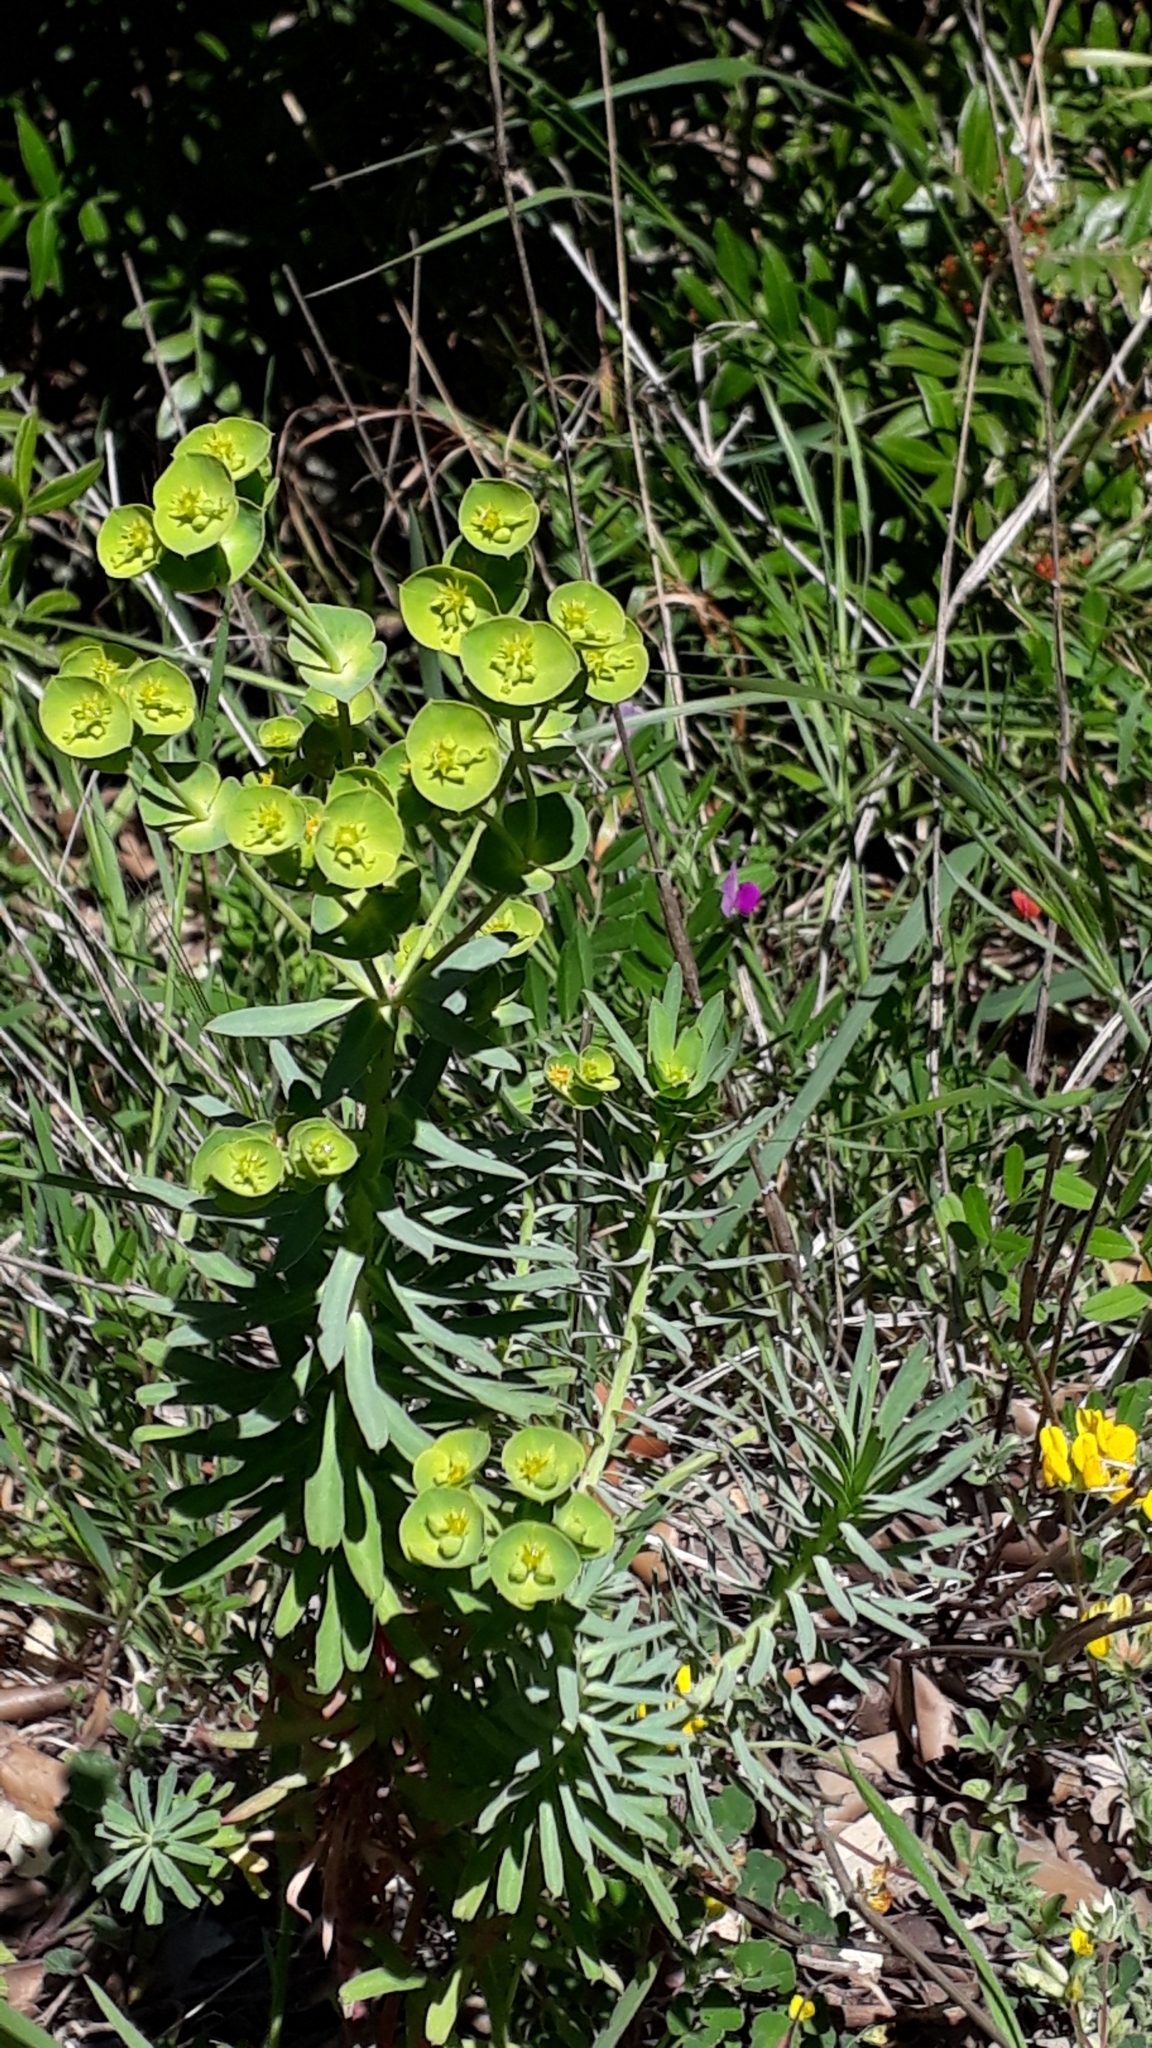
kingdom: Plantae
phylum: Tracheophyta
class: Magnoliopsida
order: Malpighiales
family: Euphorbiaceae
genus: Euphorbia
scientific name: Euphorbia segetalis
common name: Corn spurge
